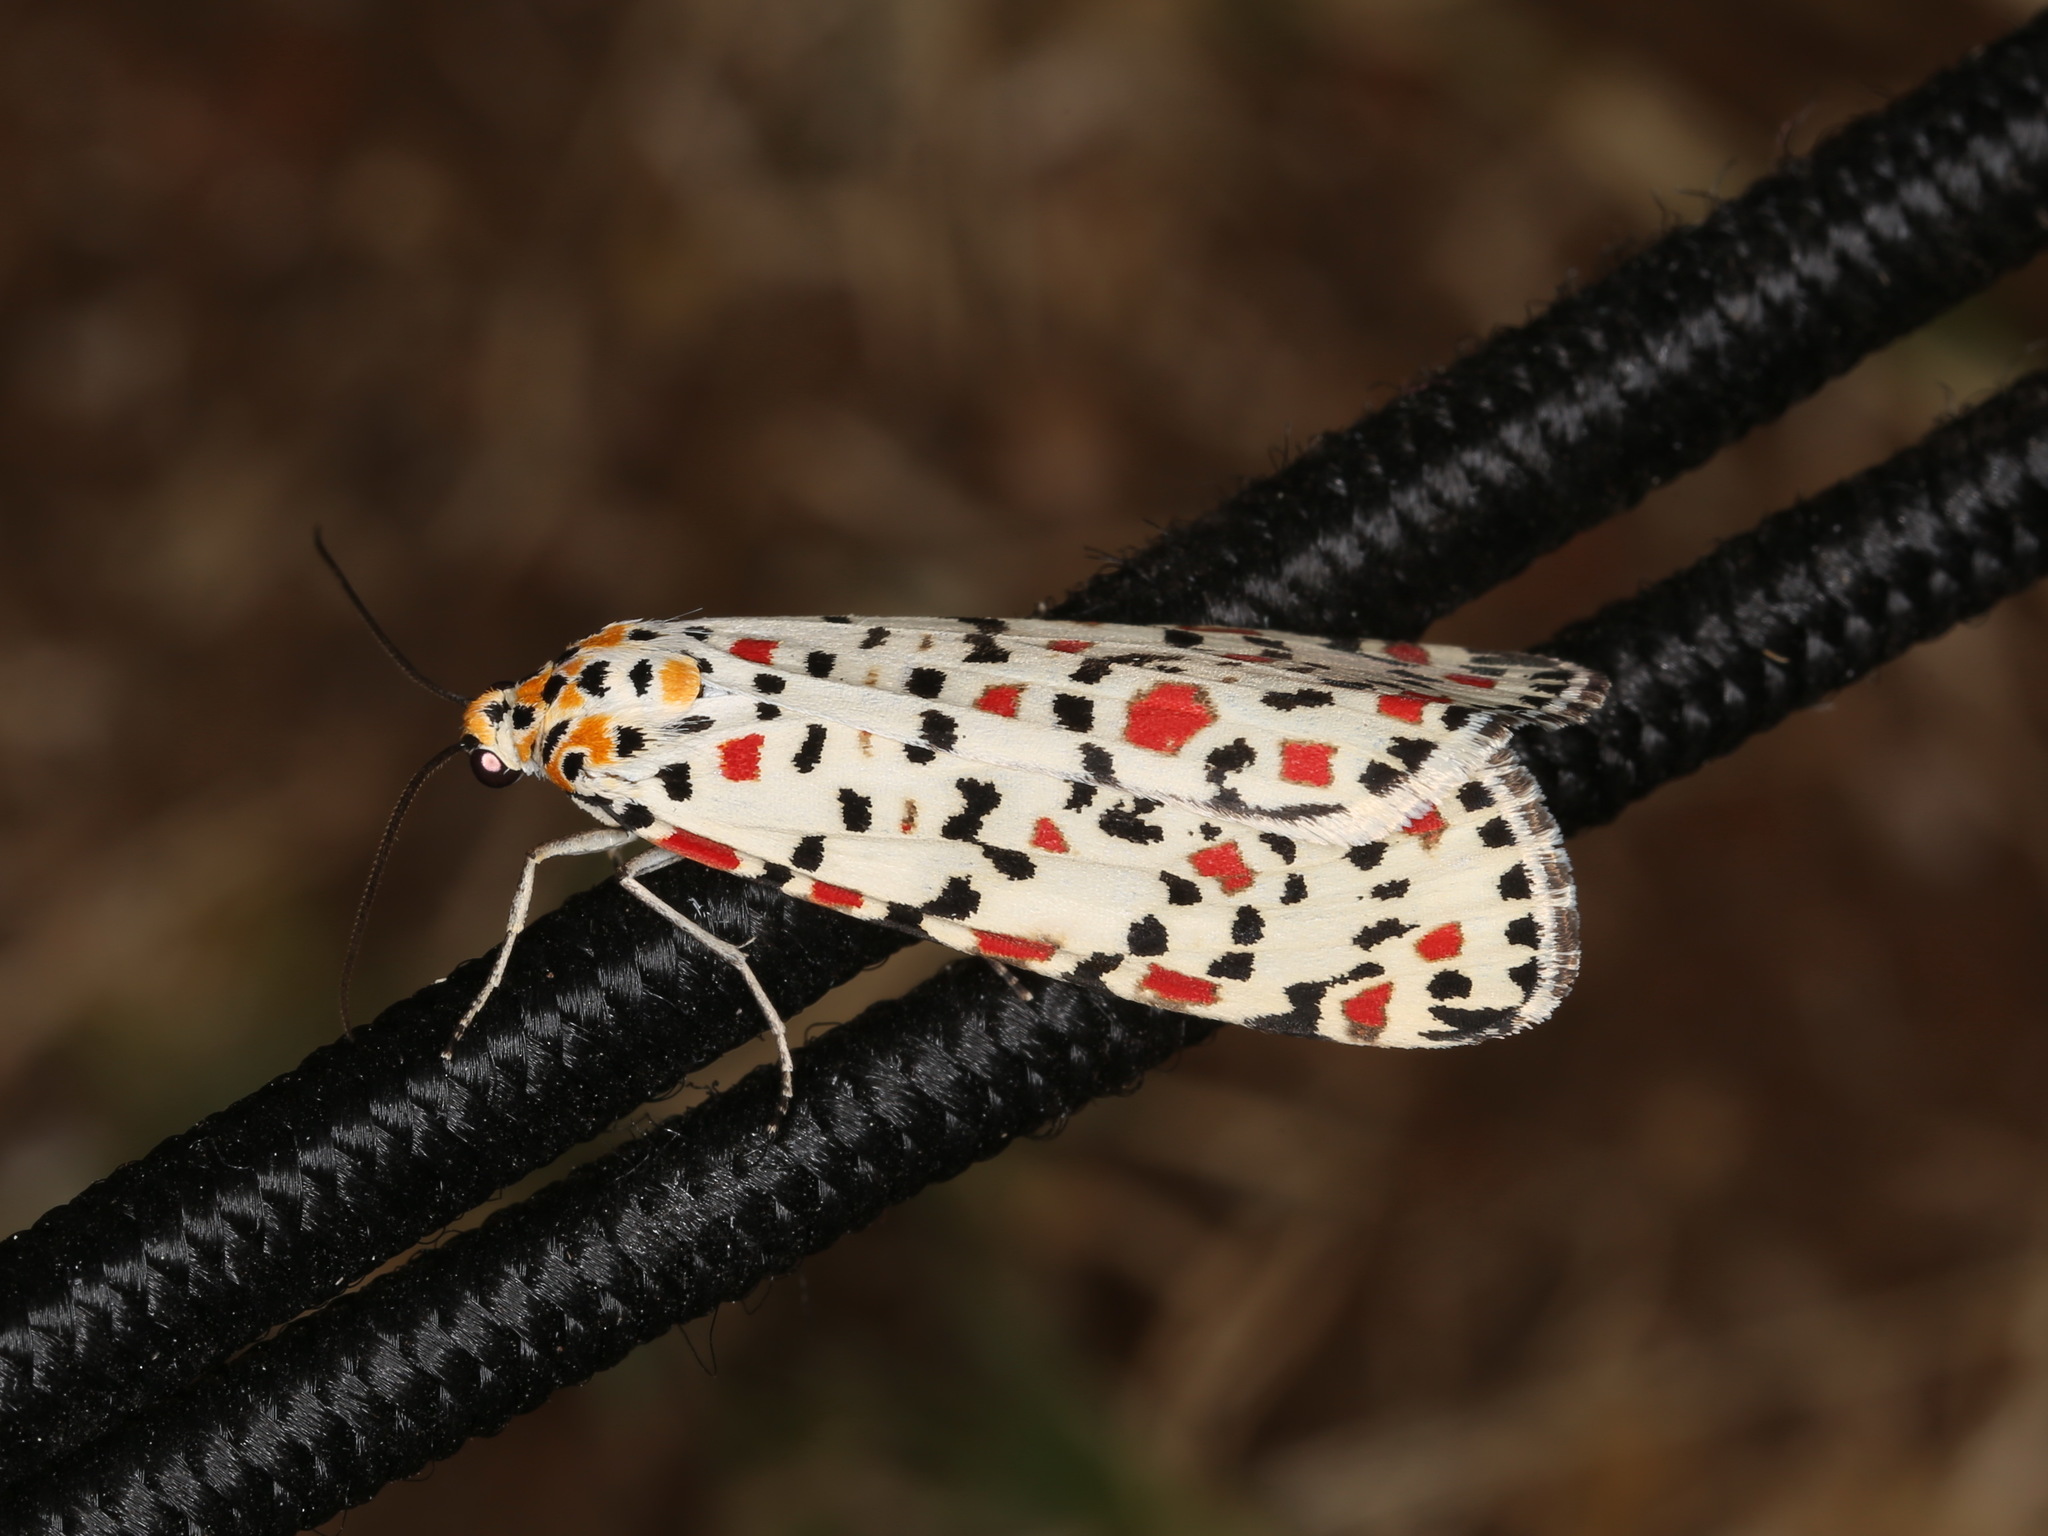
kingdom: Animalia
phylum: Arthropoda
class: Insecta
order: Lepidoptera
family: Erebidae
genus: Utetheisa
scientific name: Utetheisa pulchella
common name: Crimson speckled
